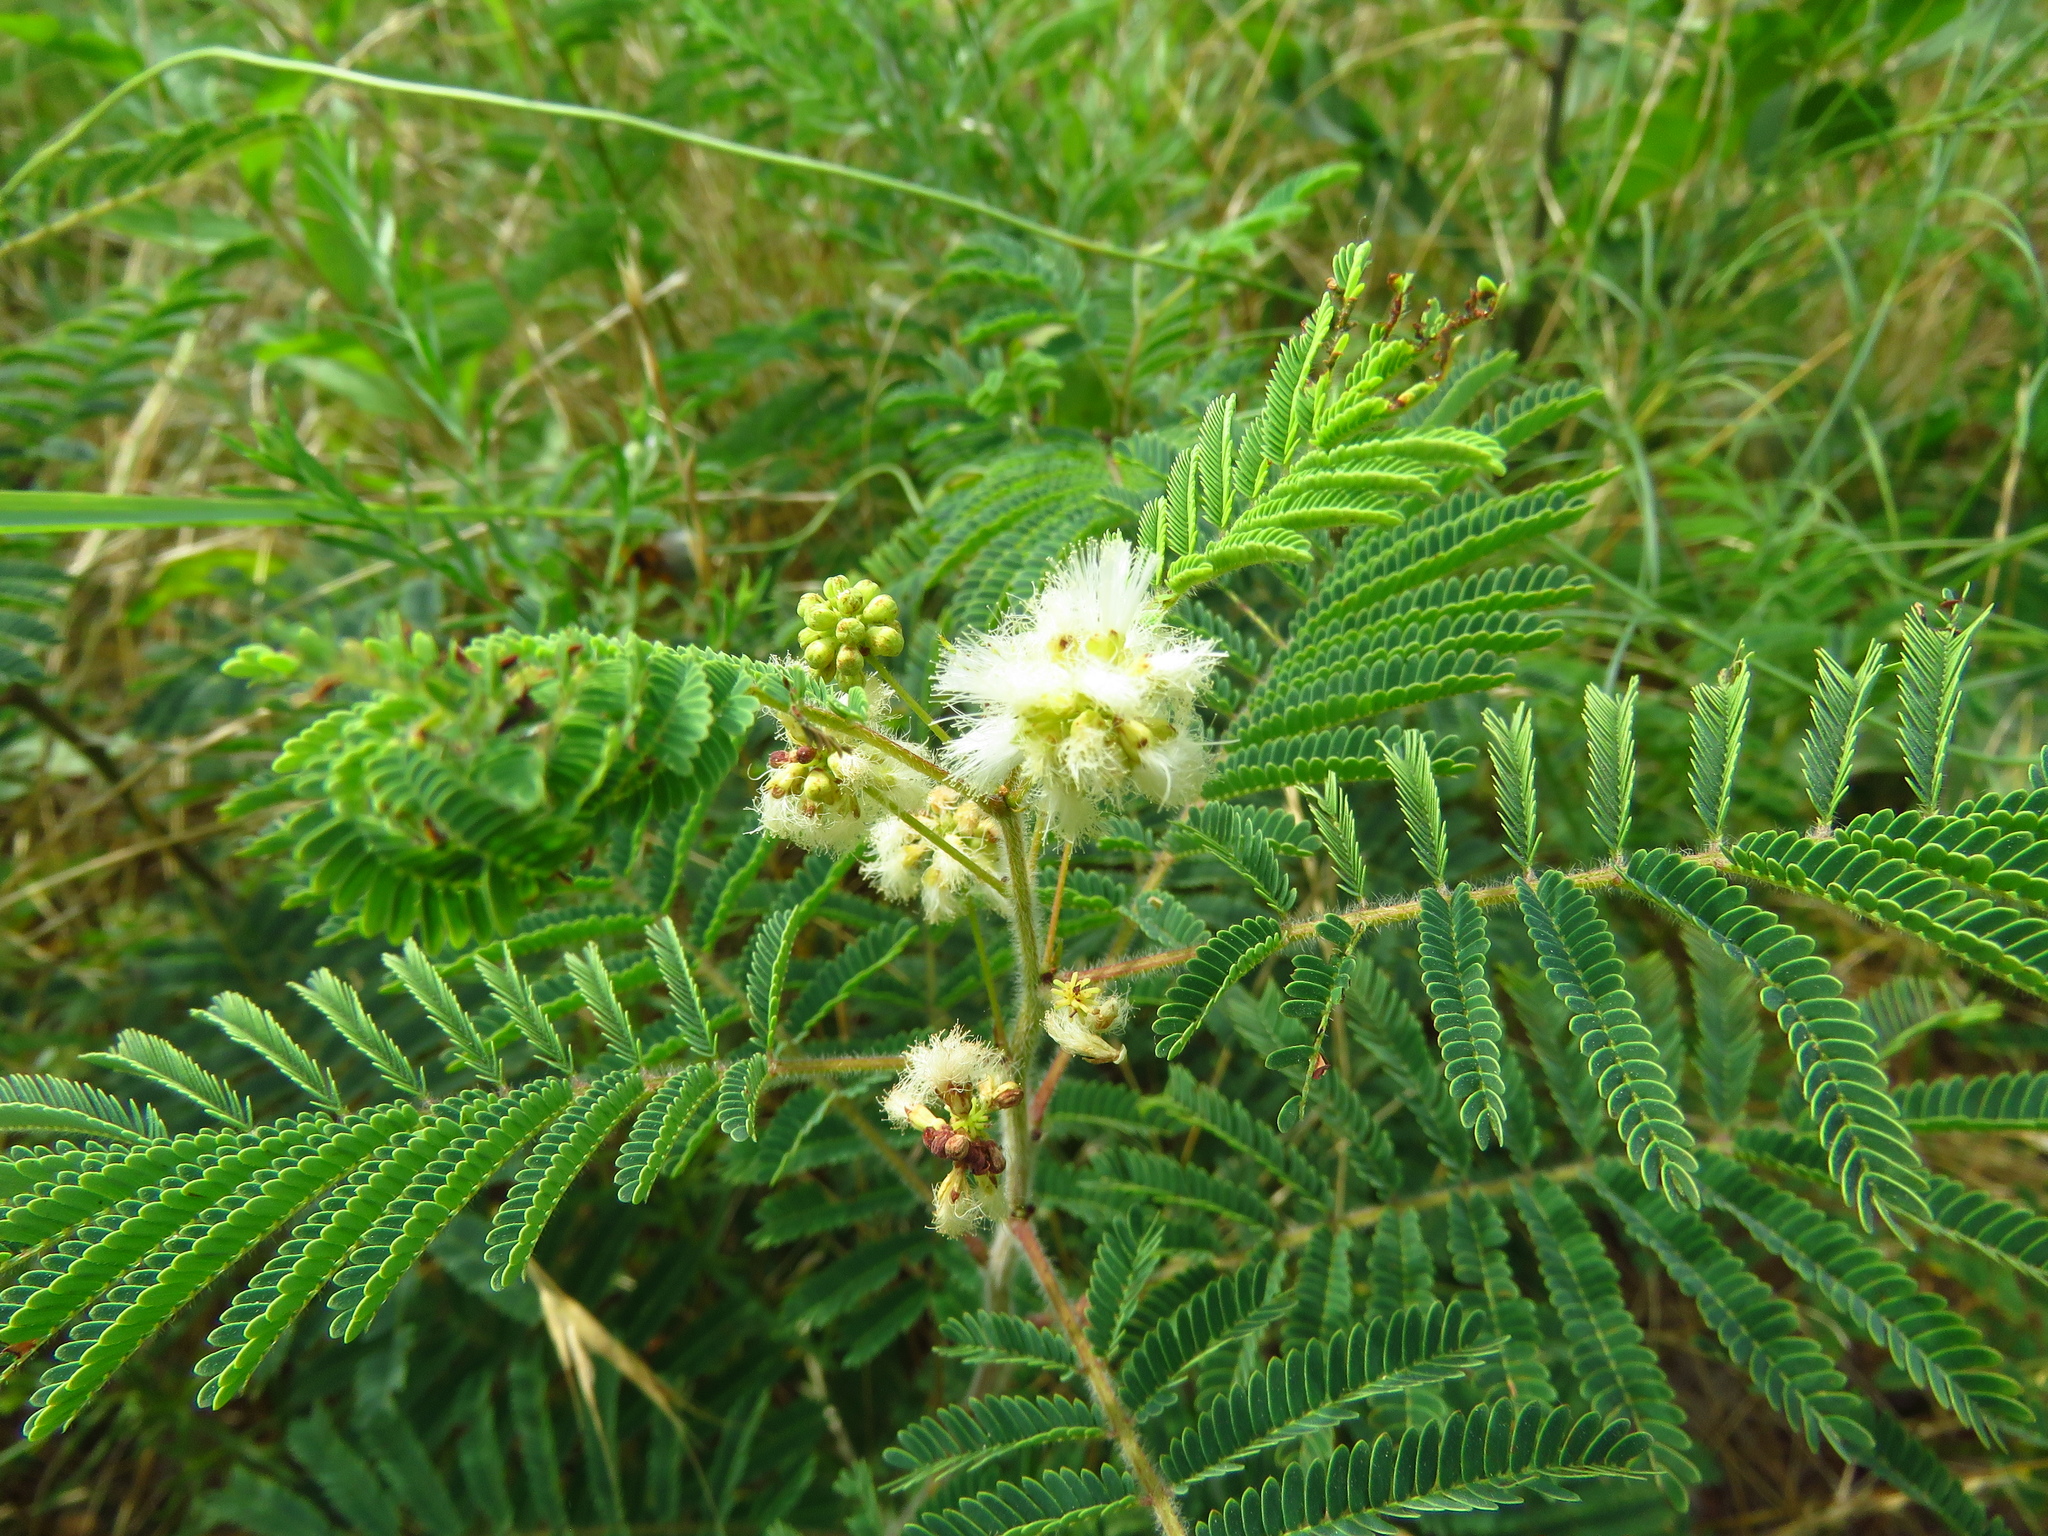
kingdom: Plantae
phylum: Tracheophyta
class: Magnoliopsida
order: Fabales
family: Fabaceae
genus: Desmanthus
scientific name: Desmanthus illinoensis
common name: Illinois bundle-flower
